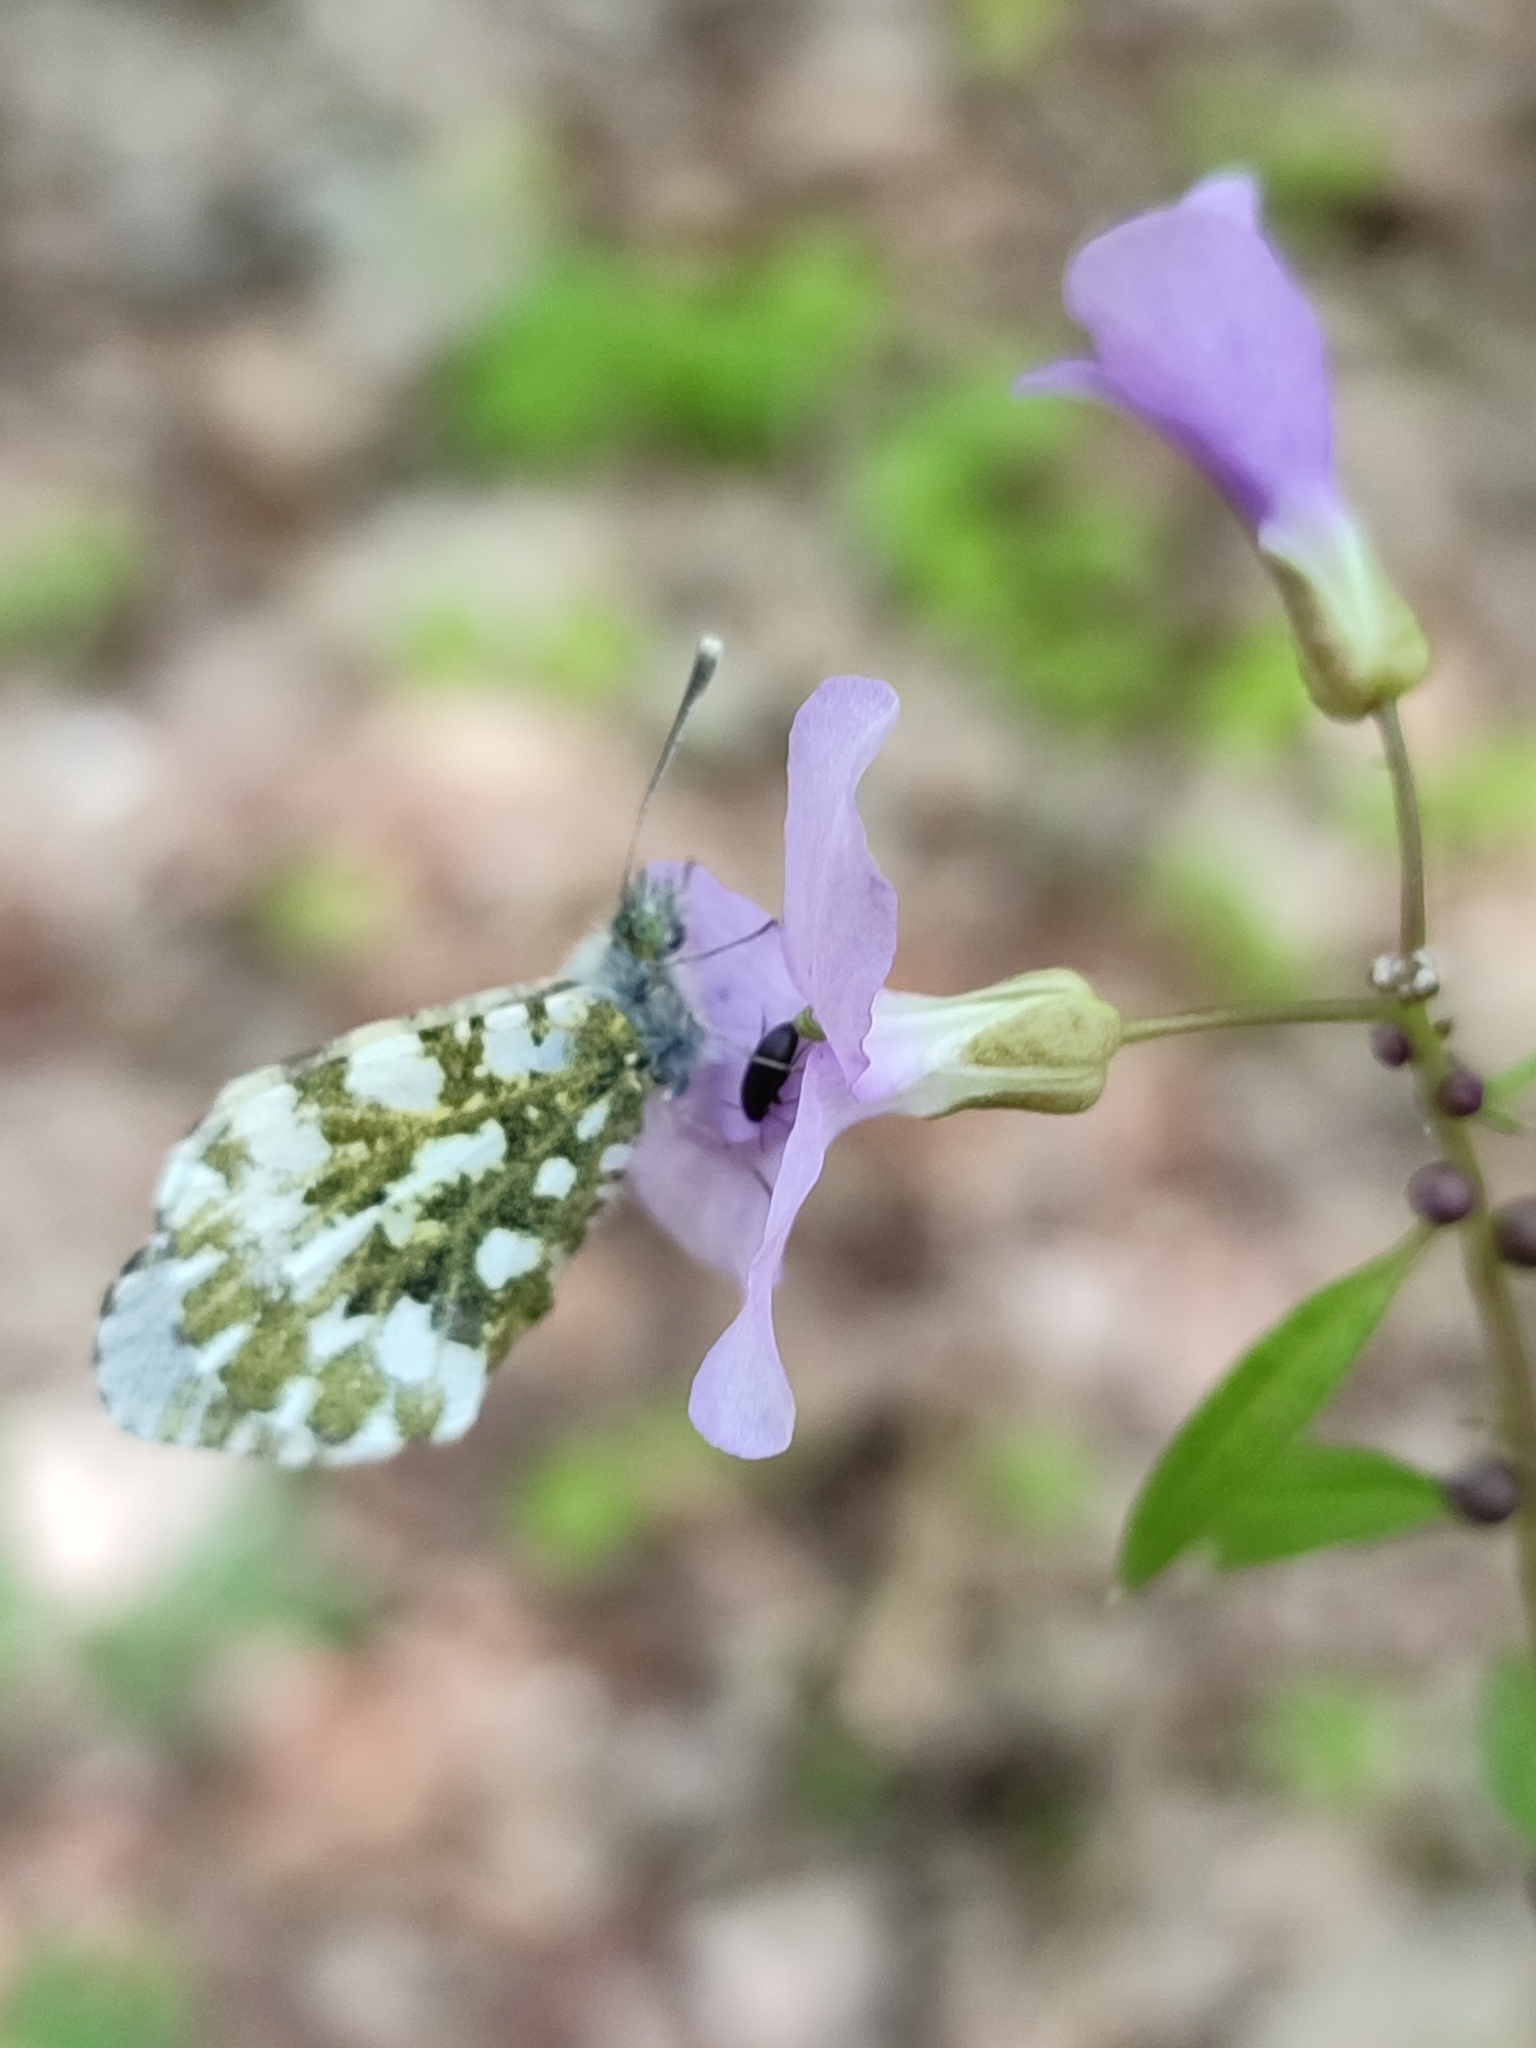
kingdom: Animalia
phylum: Arthropoda
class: Insecta
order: Lepidoptera
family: Pieridae
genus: Anthocharis
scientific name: Anthocharis cardamines
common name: Orange-tip
